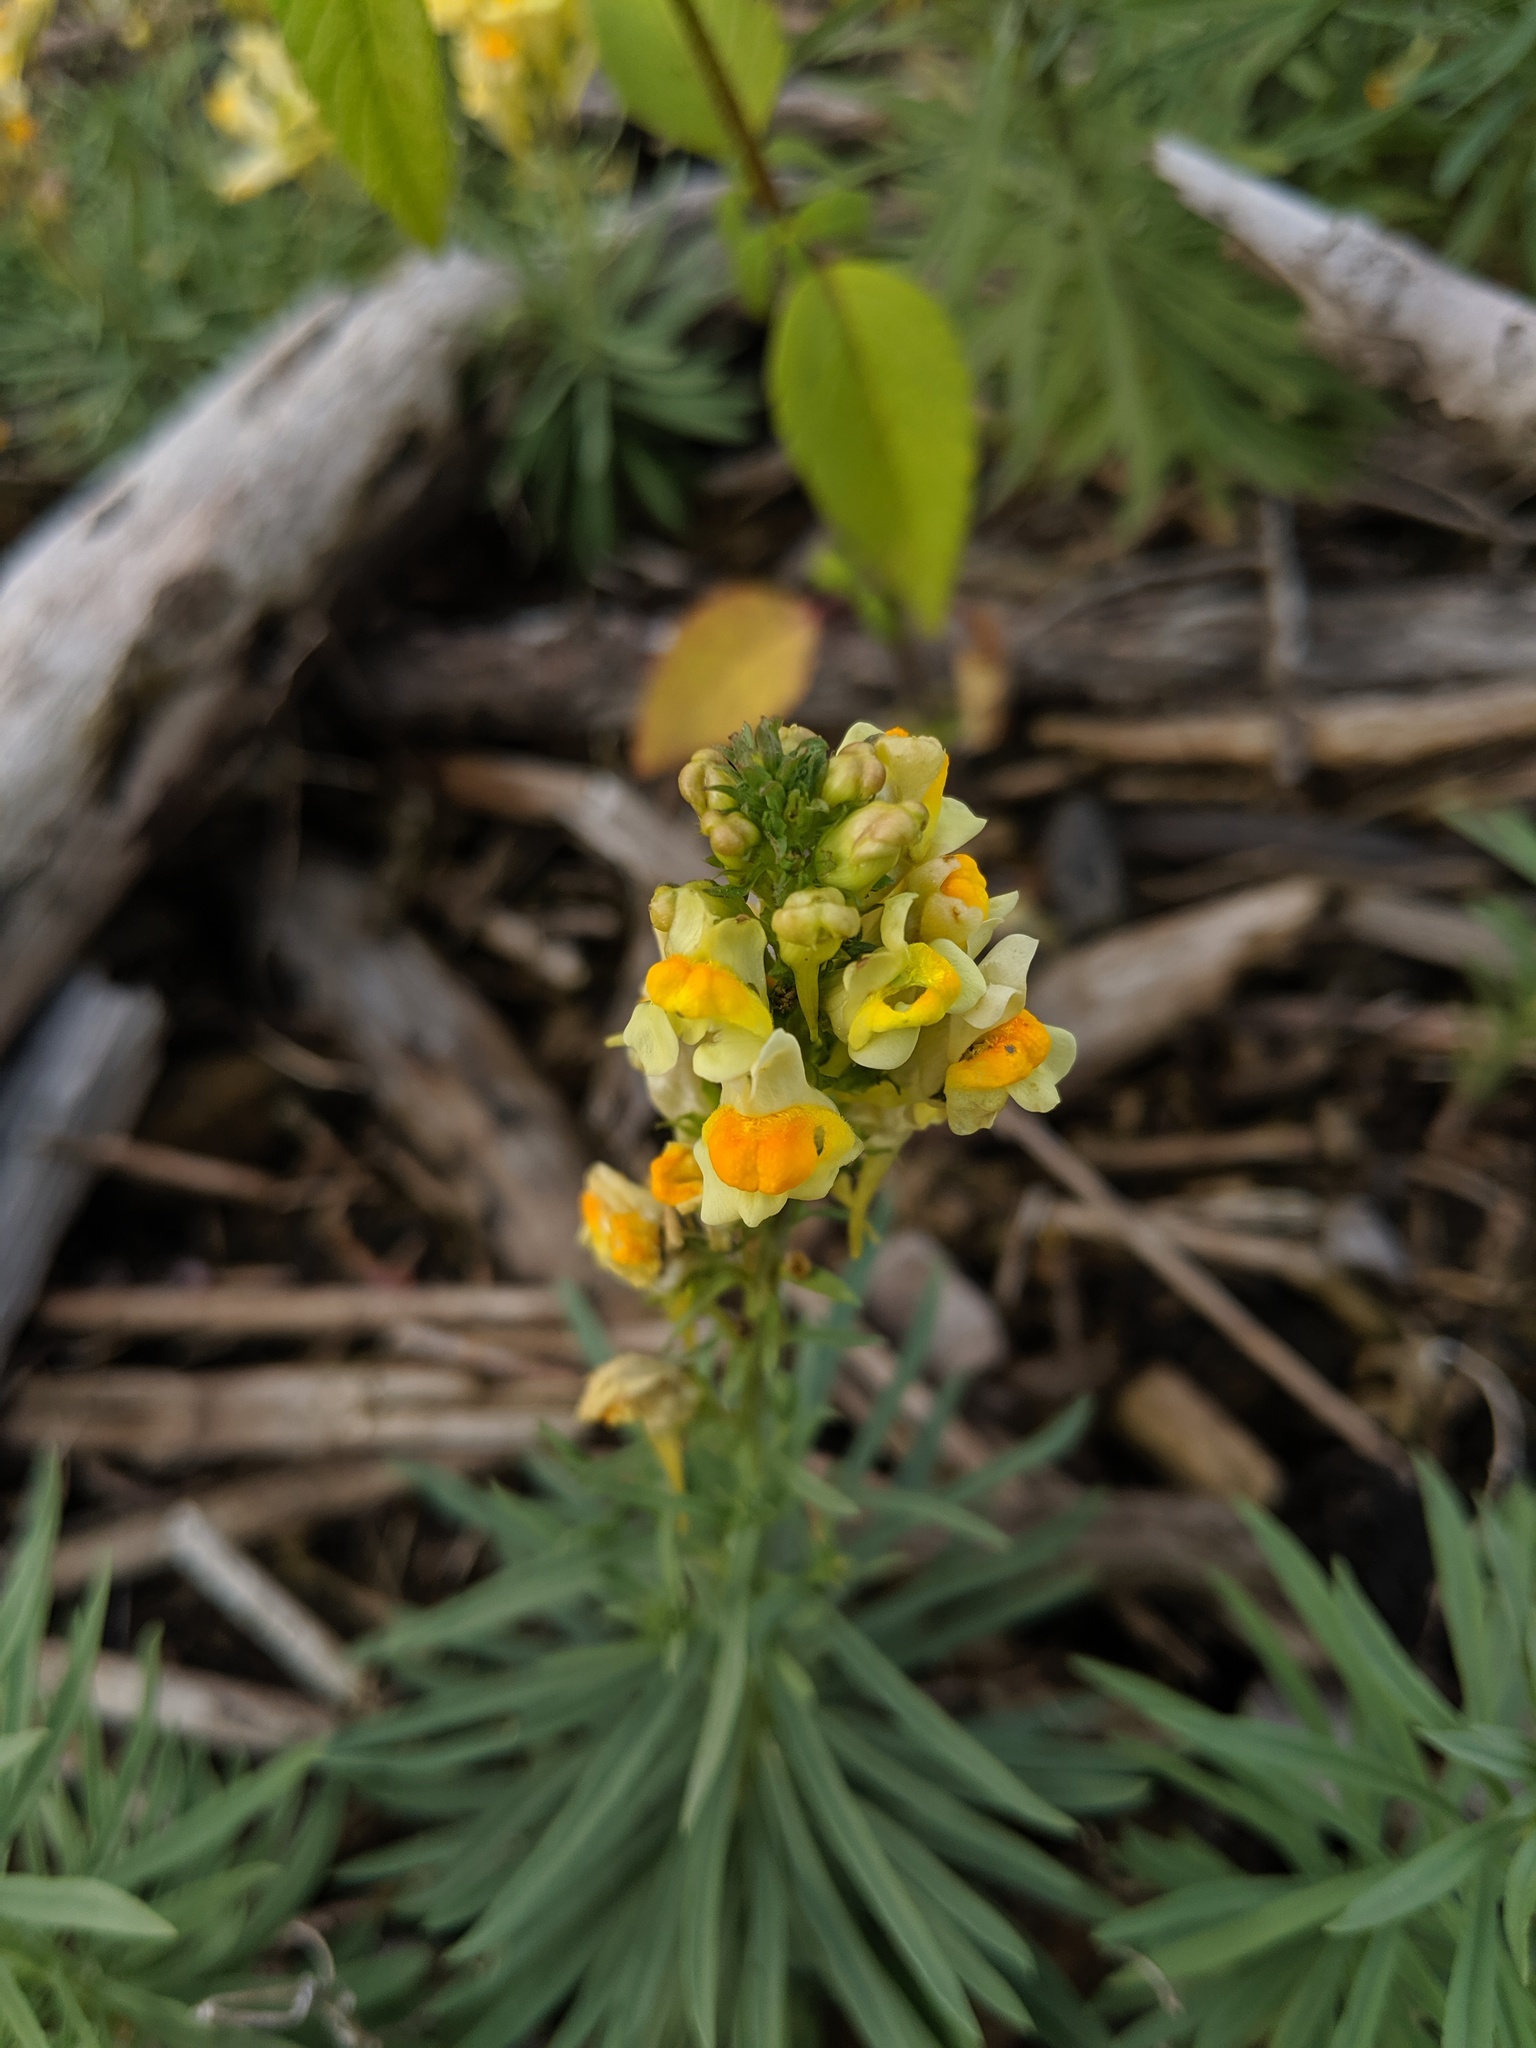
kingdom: Plantae
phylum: Tracheophyta
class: Magnoliopsida
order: Lamiales
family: Plantaginaceae
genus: Linaria
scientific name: Linaria vulgaris
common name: Butter and eggs
